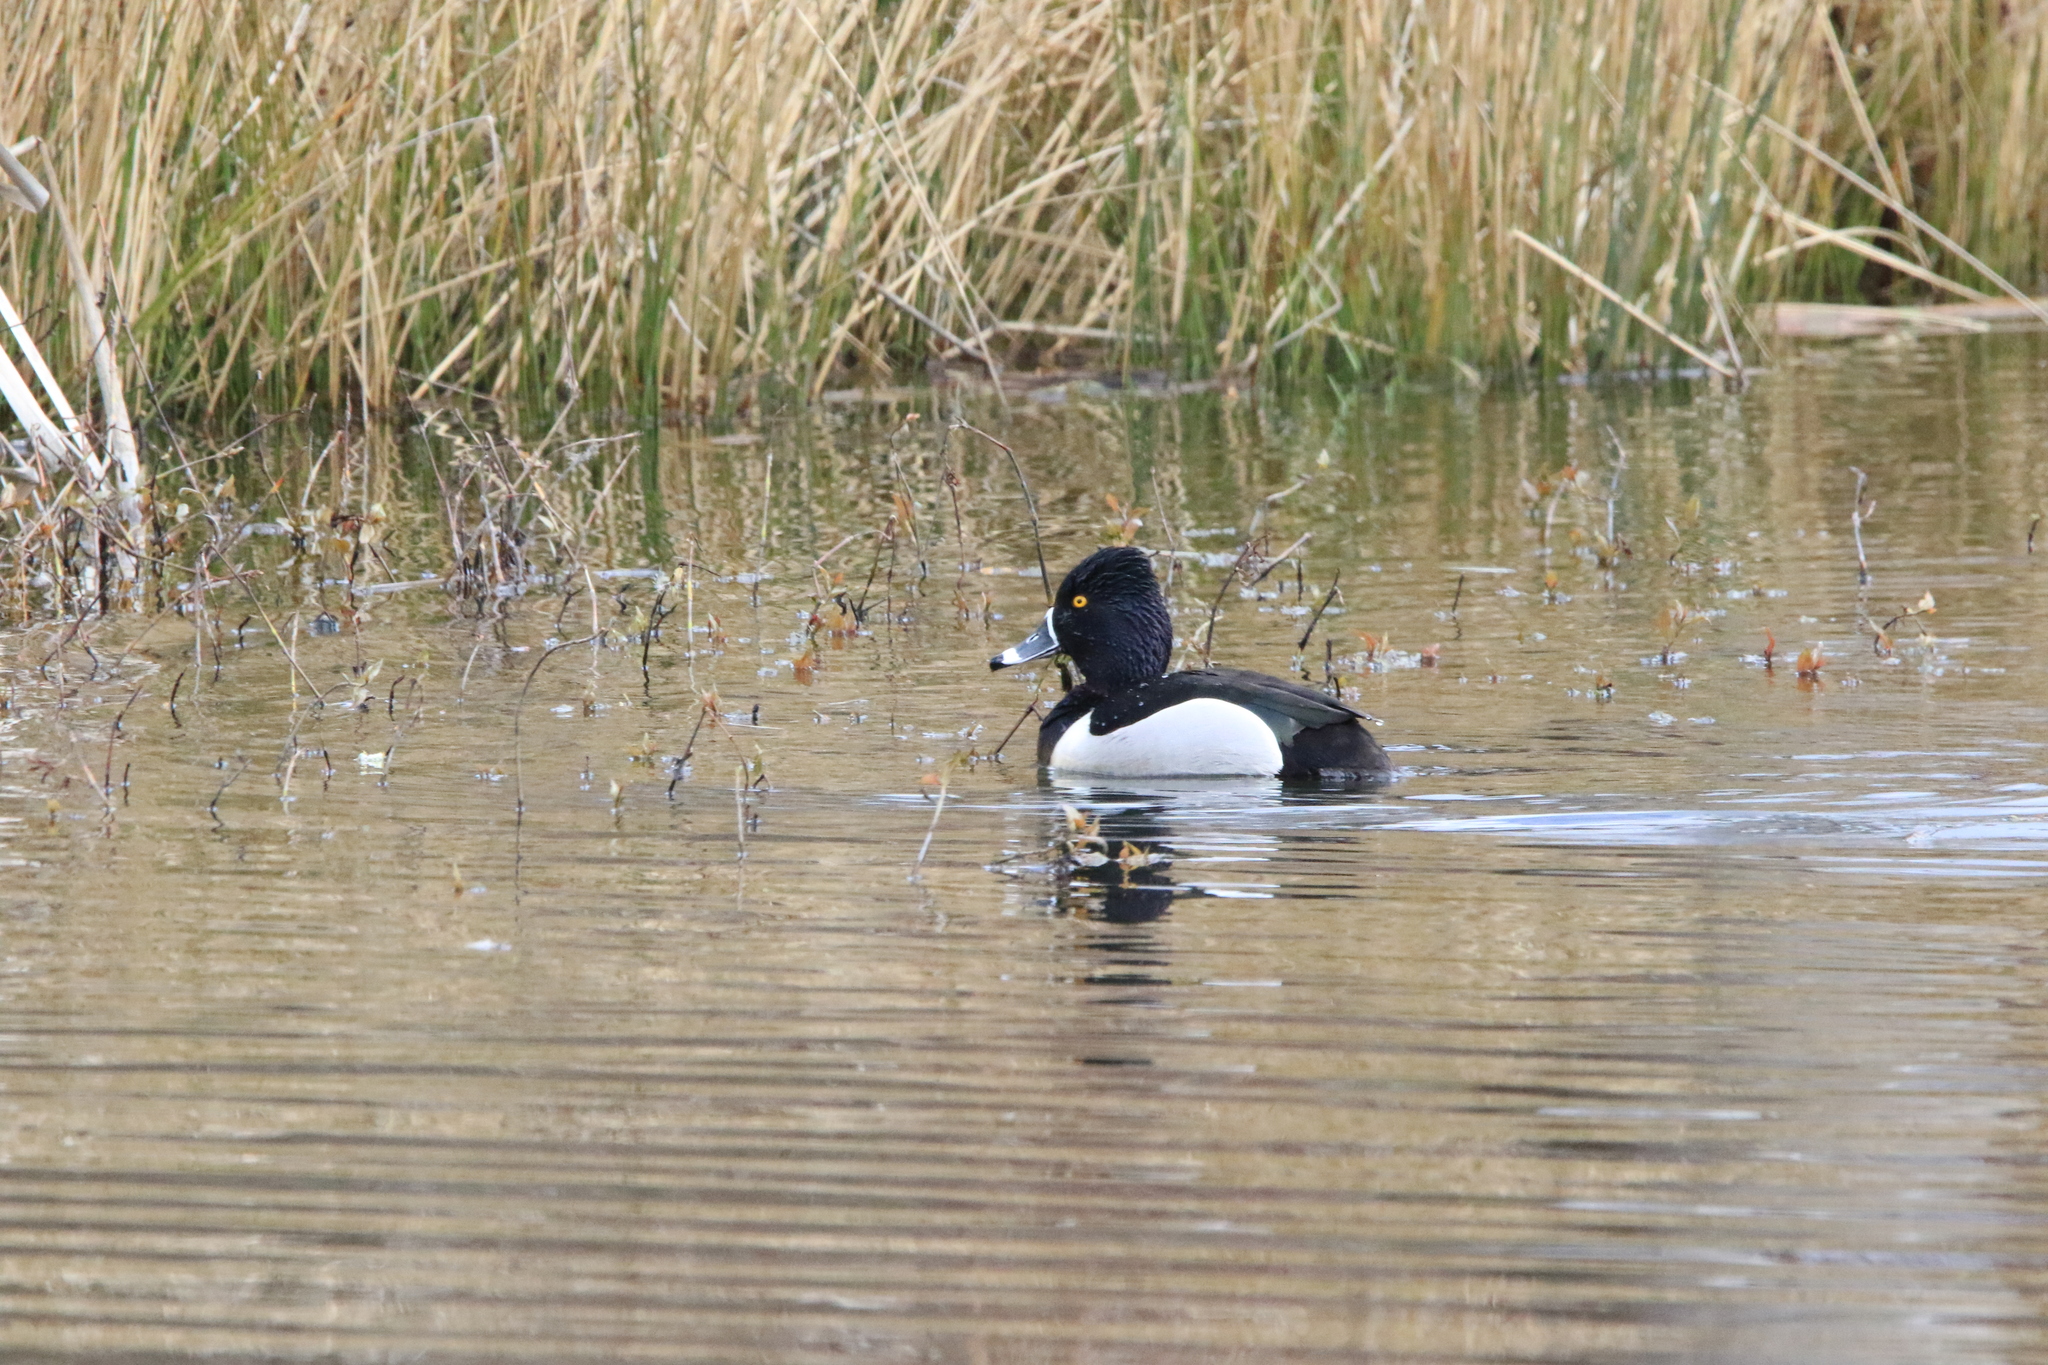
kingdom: Animalia
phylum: Chordata
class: Aves
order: Anseriformes
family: Anatidae
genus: Aythya
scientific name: Aythya collaris
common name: Ring-necked duck
